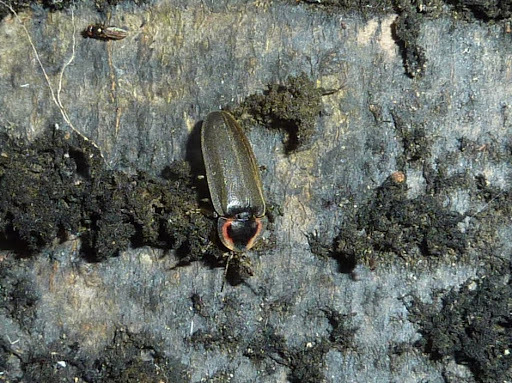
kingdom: Animalia
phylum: Arthropoda
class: Insecta
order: Coleoptera
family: Lampyridae
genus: Photinus
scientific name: Photinus corrusca
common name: Winter firefly
